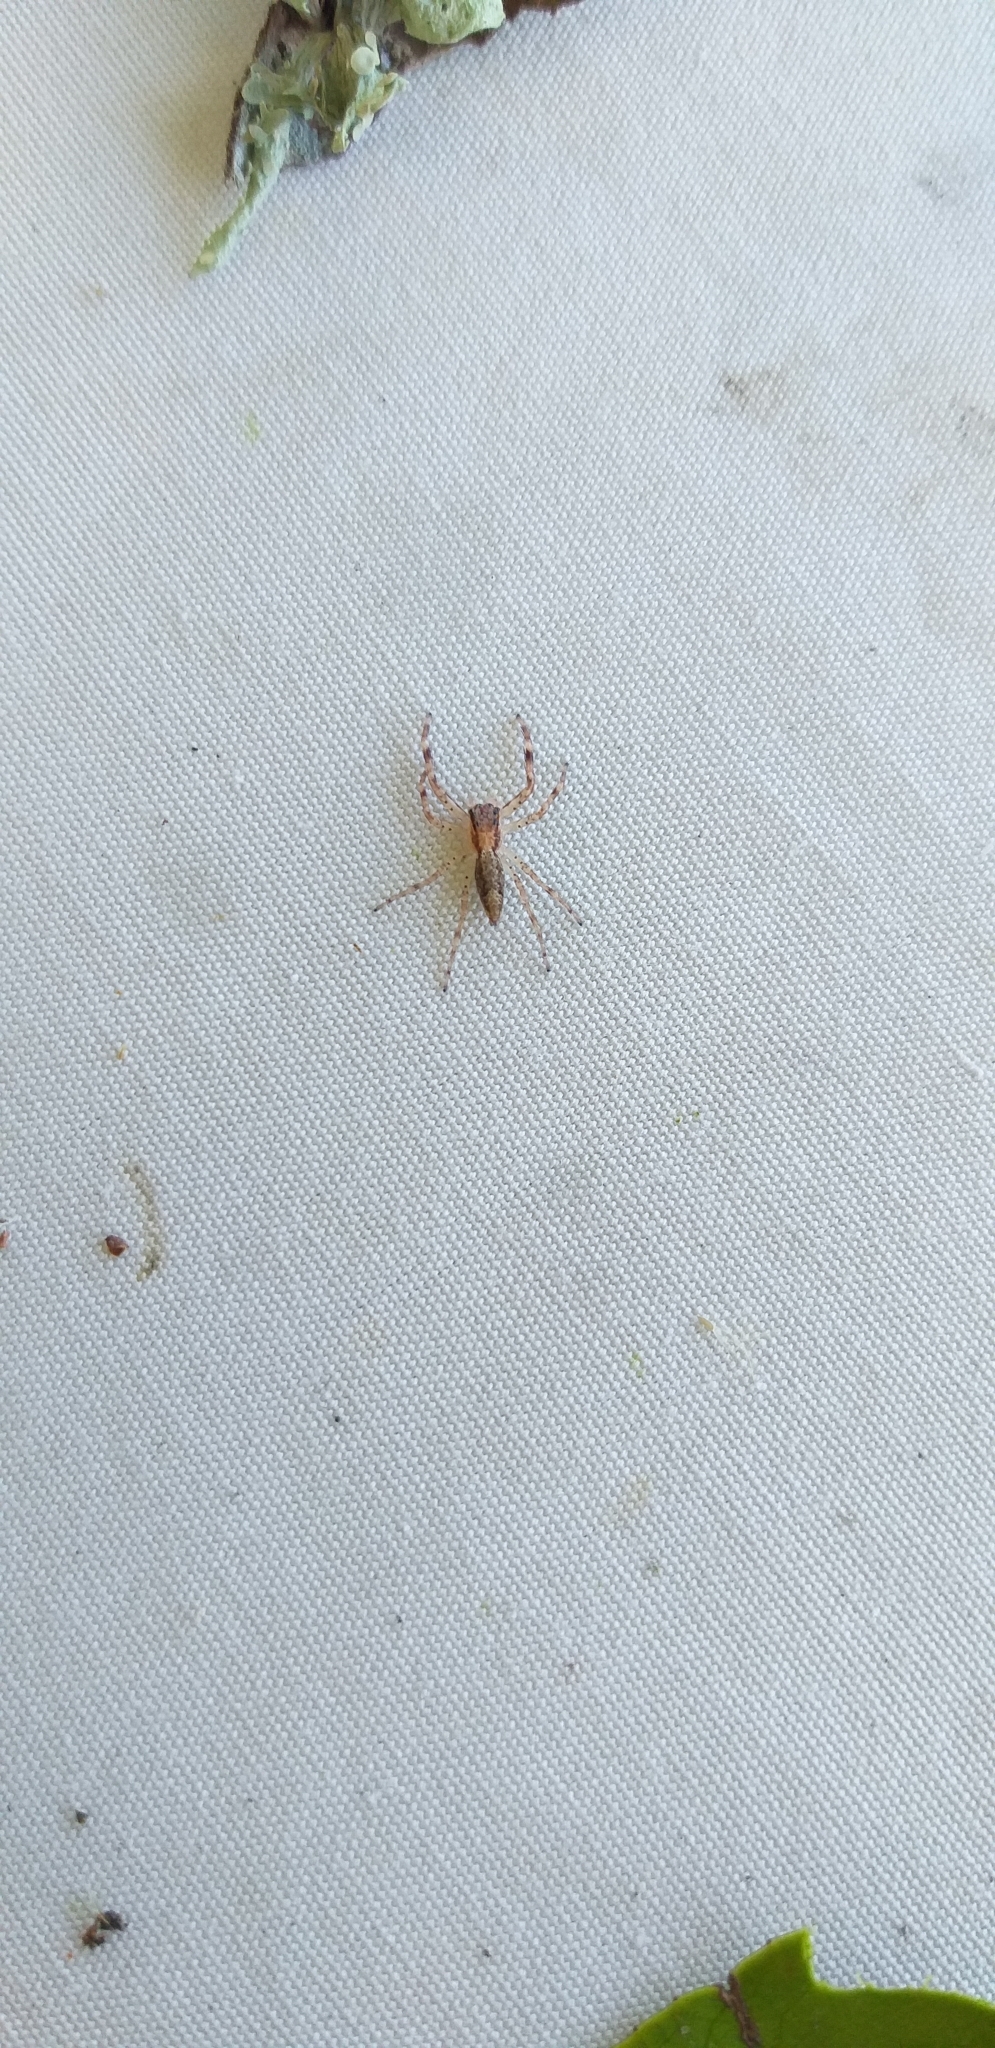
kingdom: Animalia
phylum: Arthropoda
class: Arachnida
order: Araneae
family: Salticidae
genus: Helpis
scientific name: Helpis minitabunda
